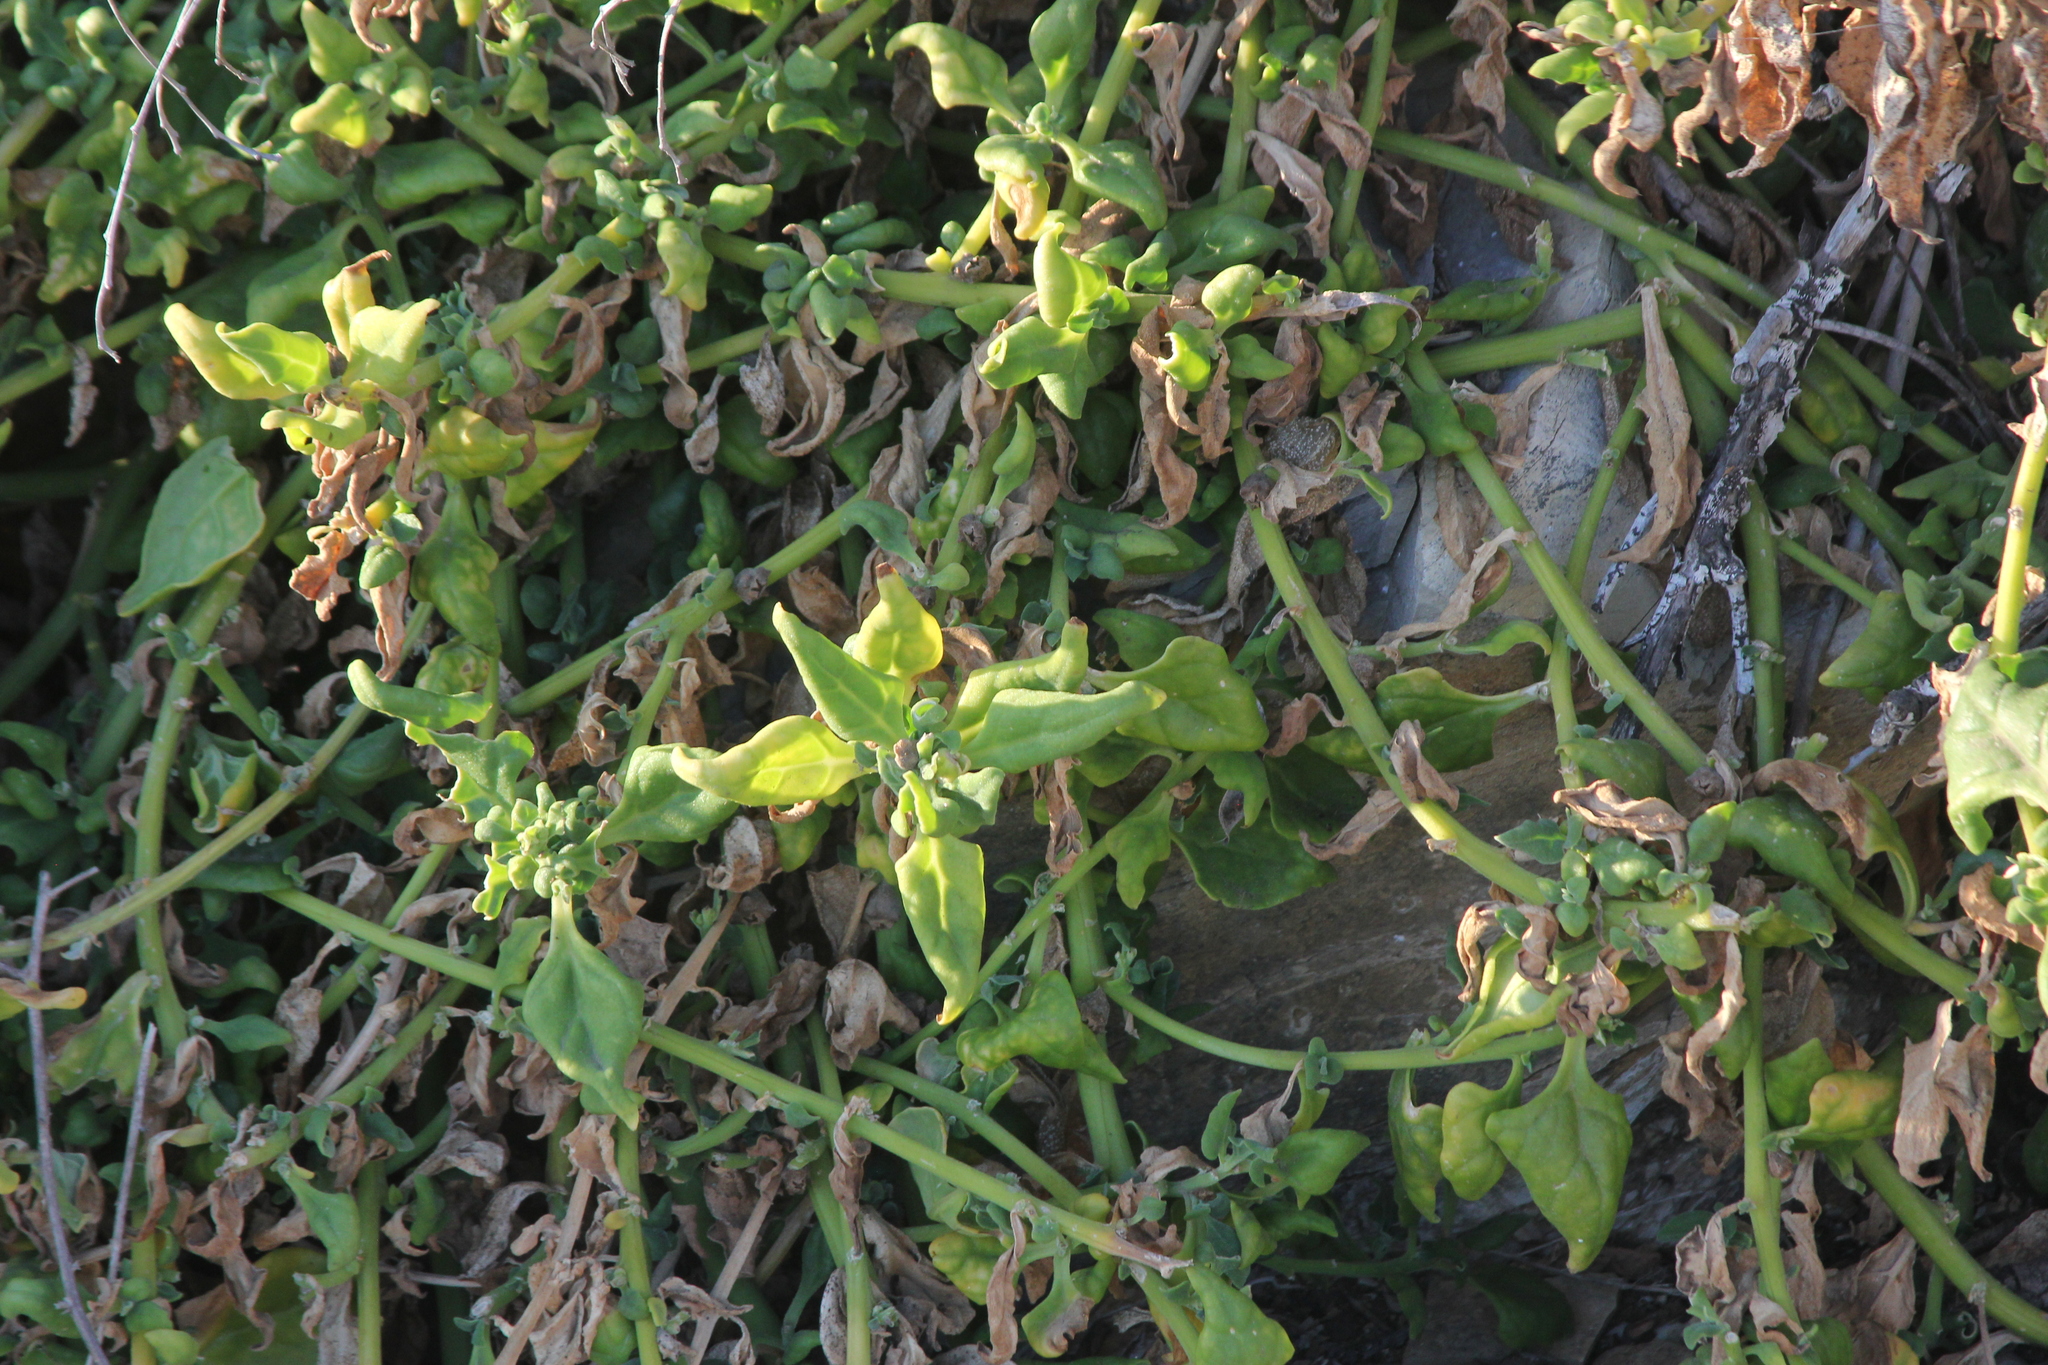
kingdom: Plantae
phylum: Tracheophyta
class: Magnoliopsida
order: Caryophyllales
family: Aizoaceae
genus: Tetragonia
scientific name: Tetragonia tetragonoides
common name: New zealand-spinach
